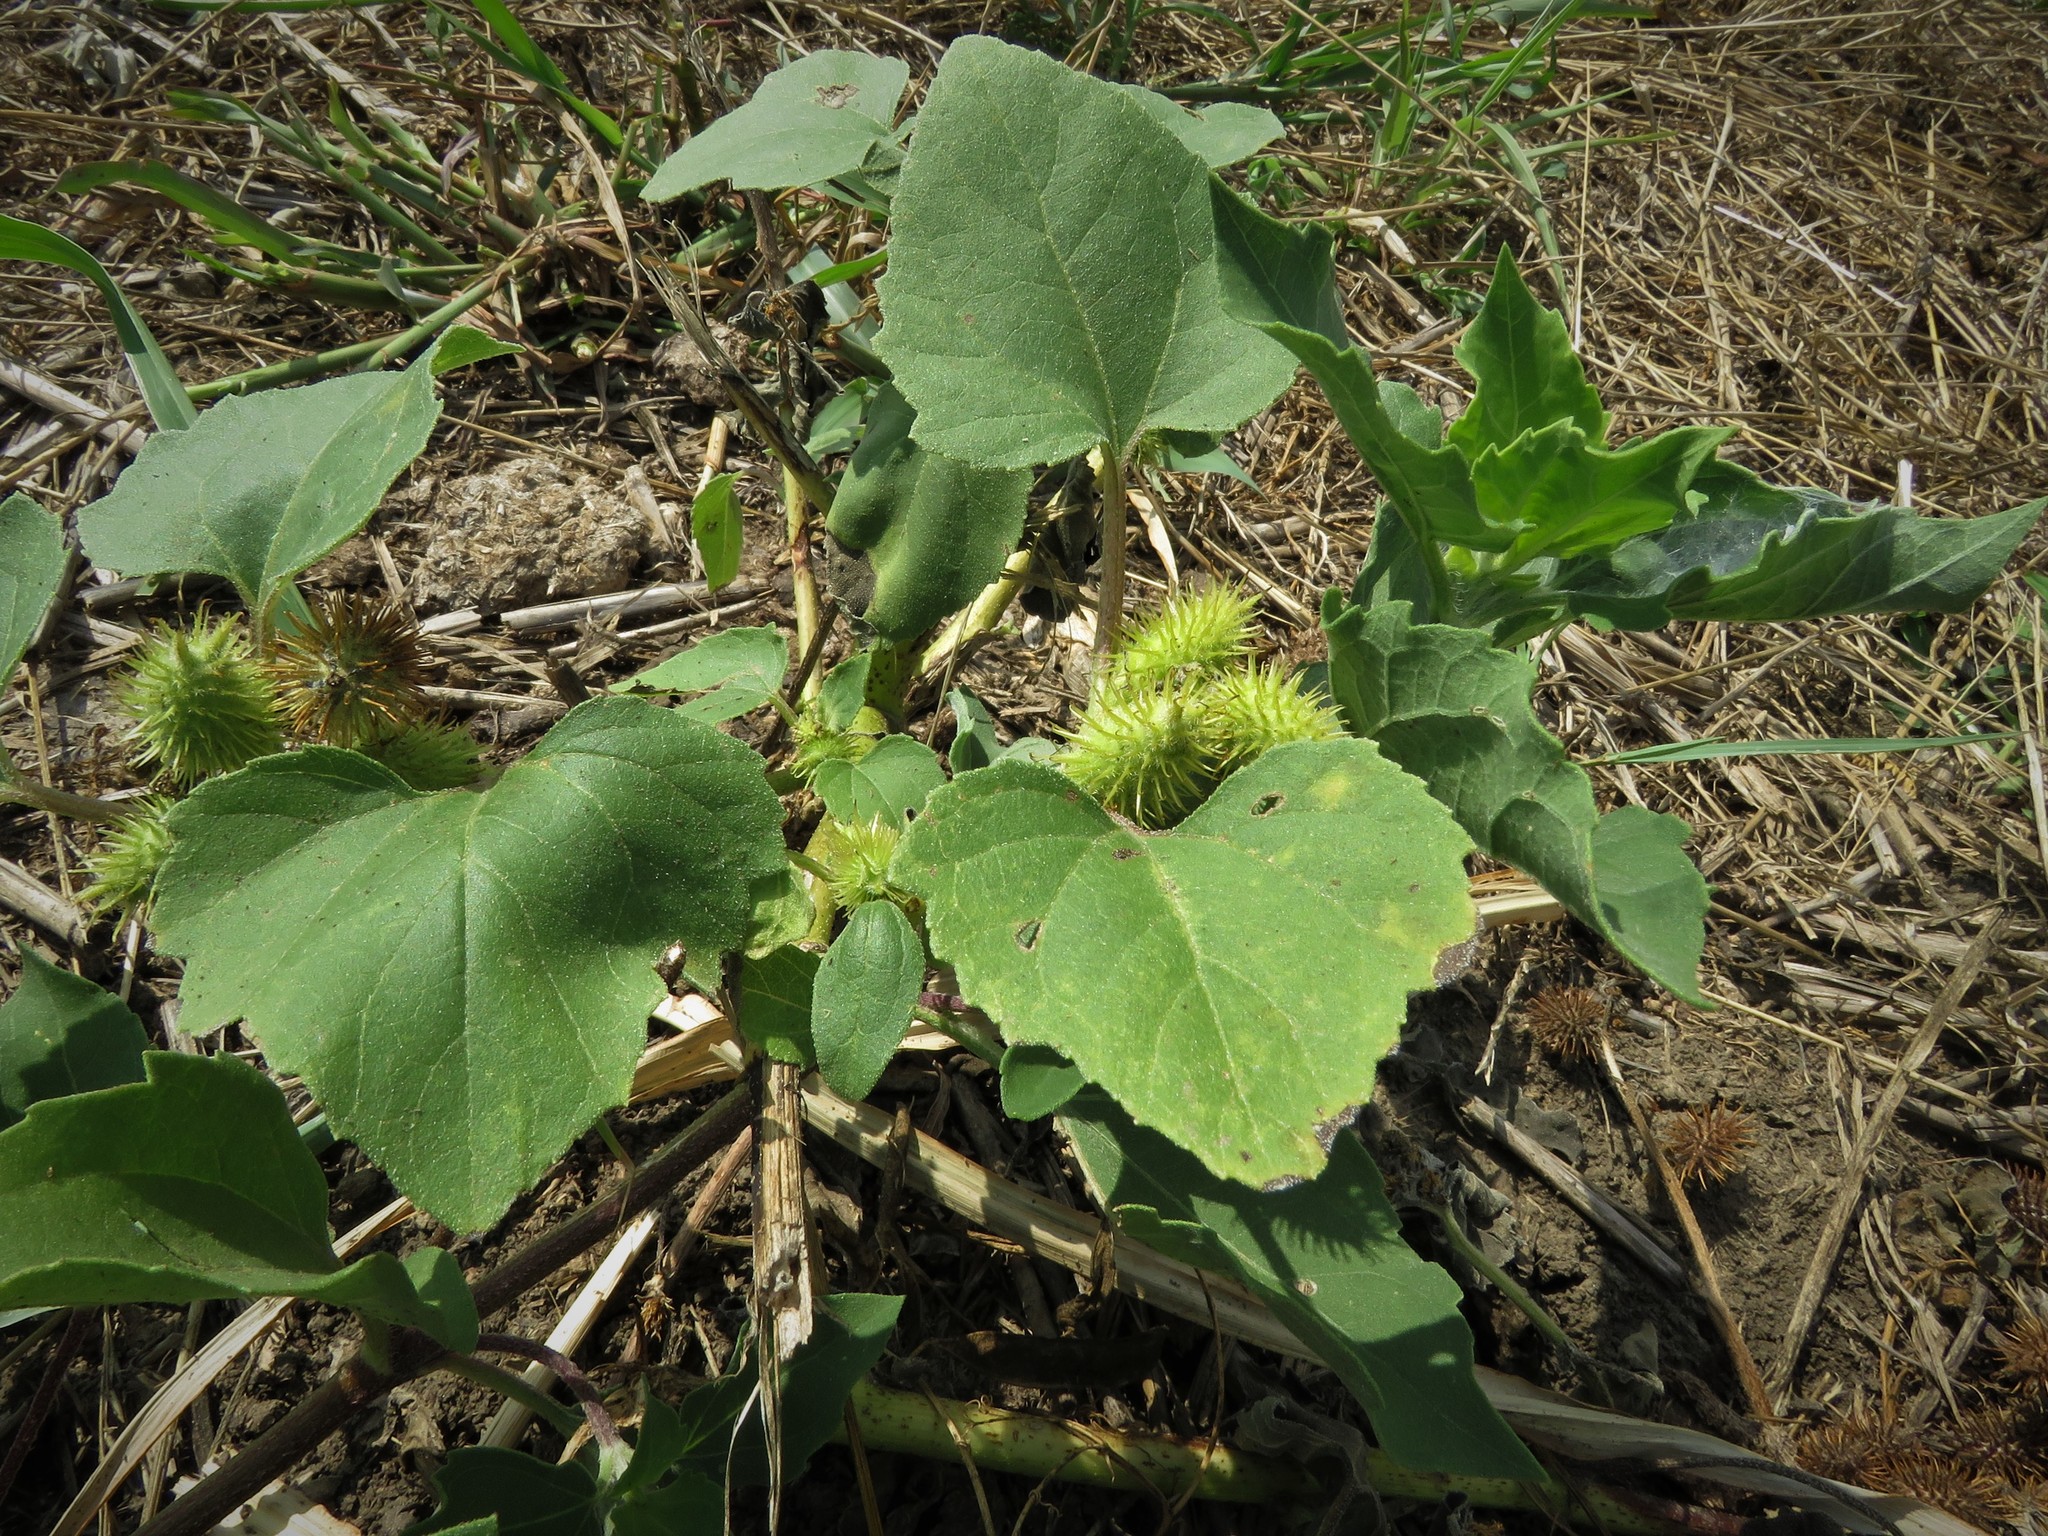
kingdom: Plantae
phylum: Tracheophyta
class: Magnoliopsida
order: Asterales
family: Asteraceae
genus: Xanthium
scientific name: Xanthium strumarium
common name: Rough cocklebur
